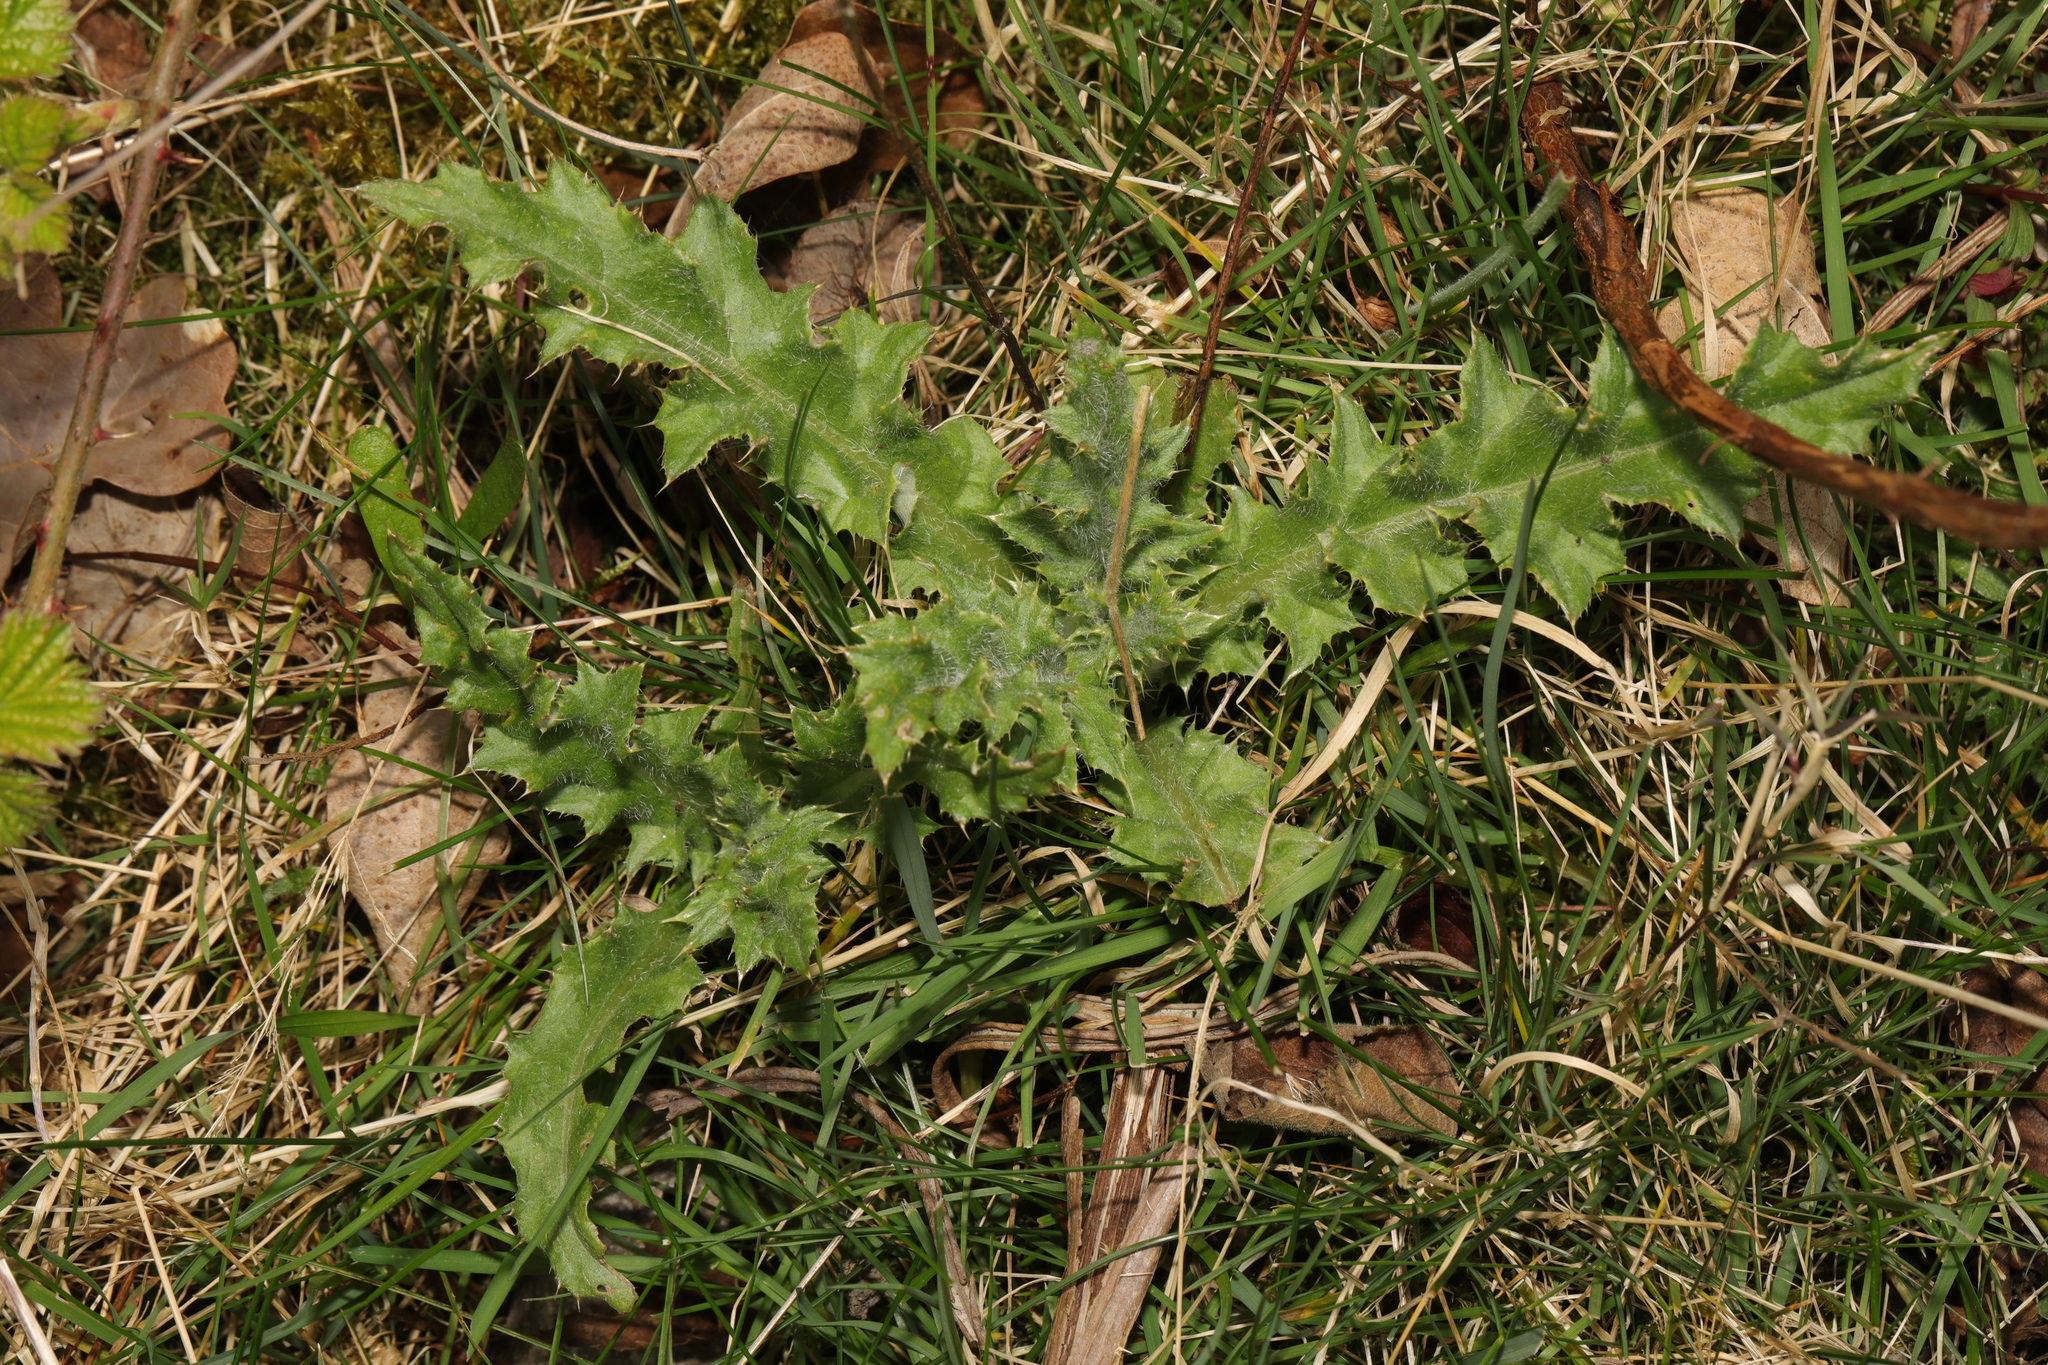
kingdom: Plantae
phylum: Tracheophyta
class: Magnoliopsida
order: Asterales
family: Asteraceae
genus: Cirsium
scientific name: Cirsium arvense
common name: Creeping thistle
